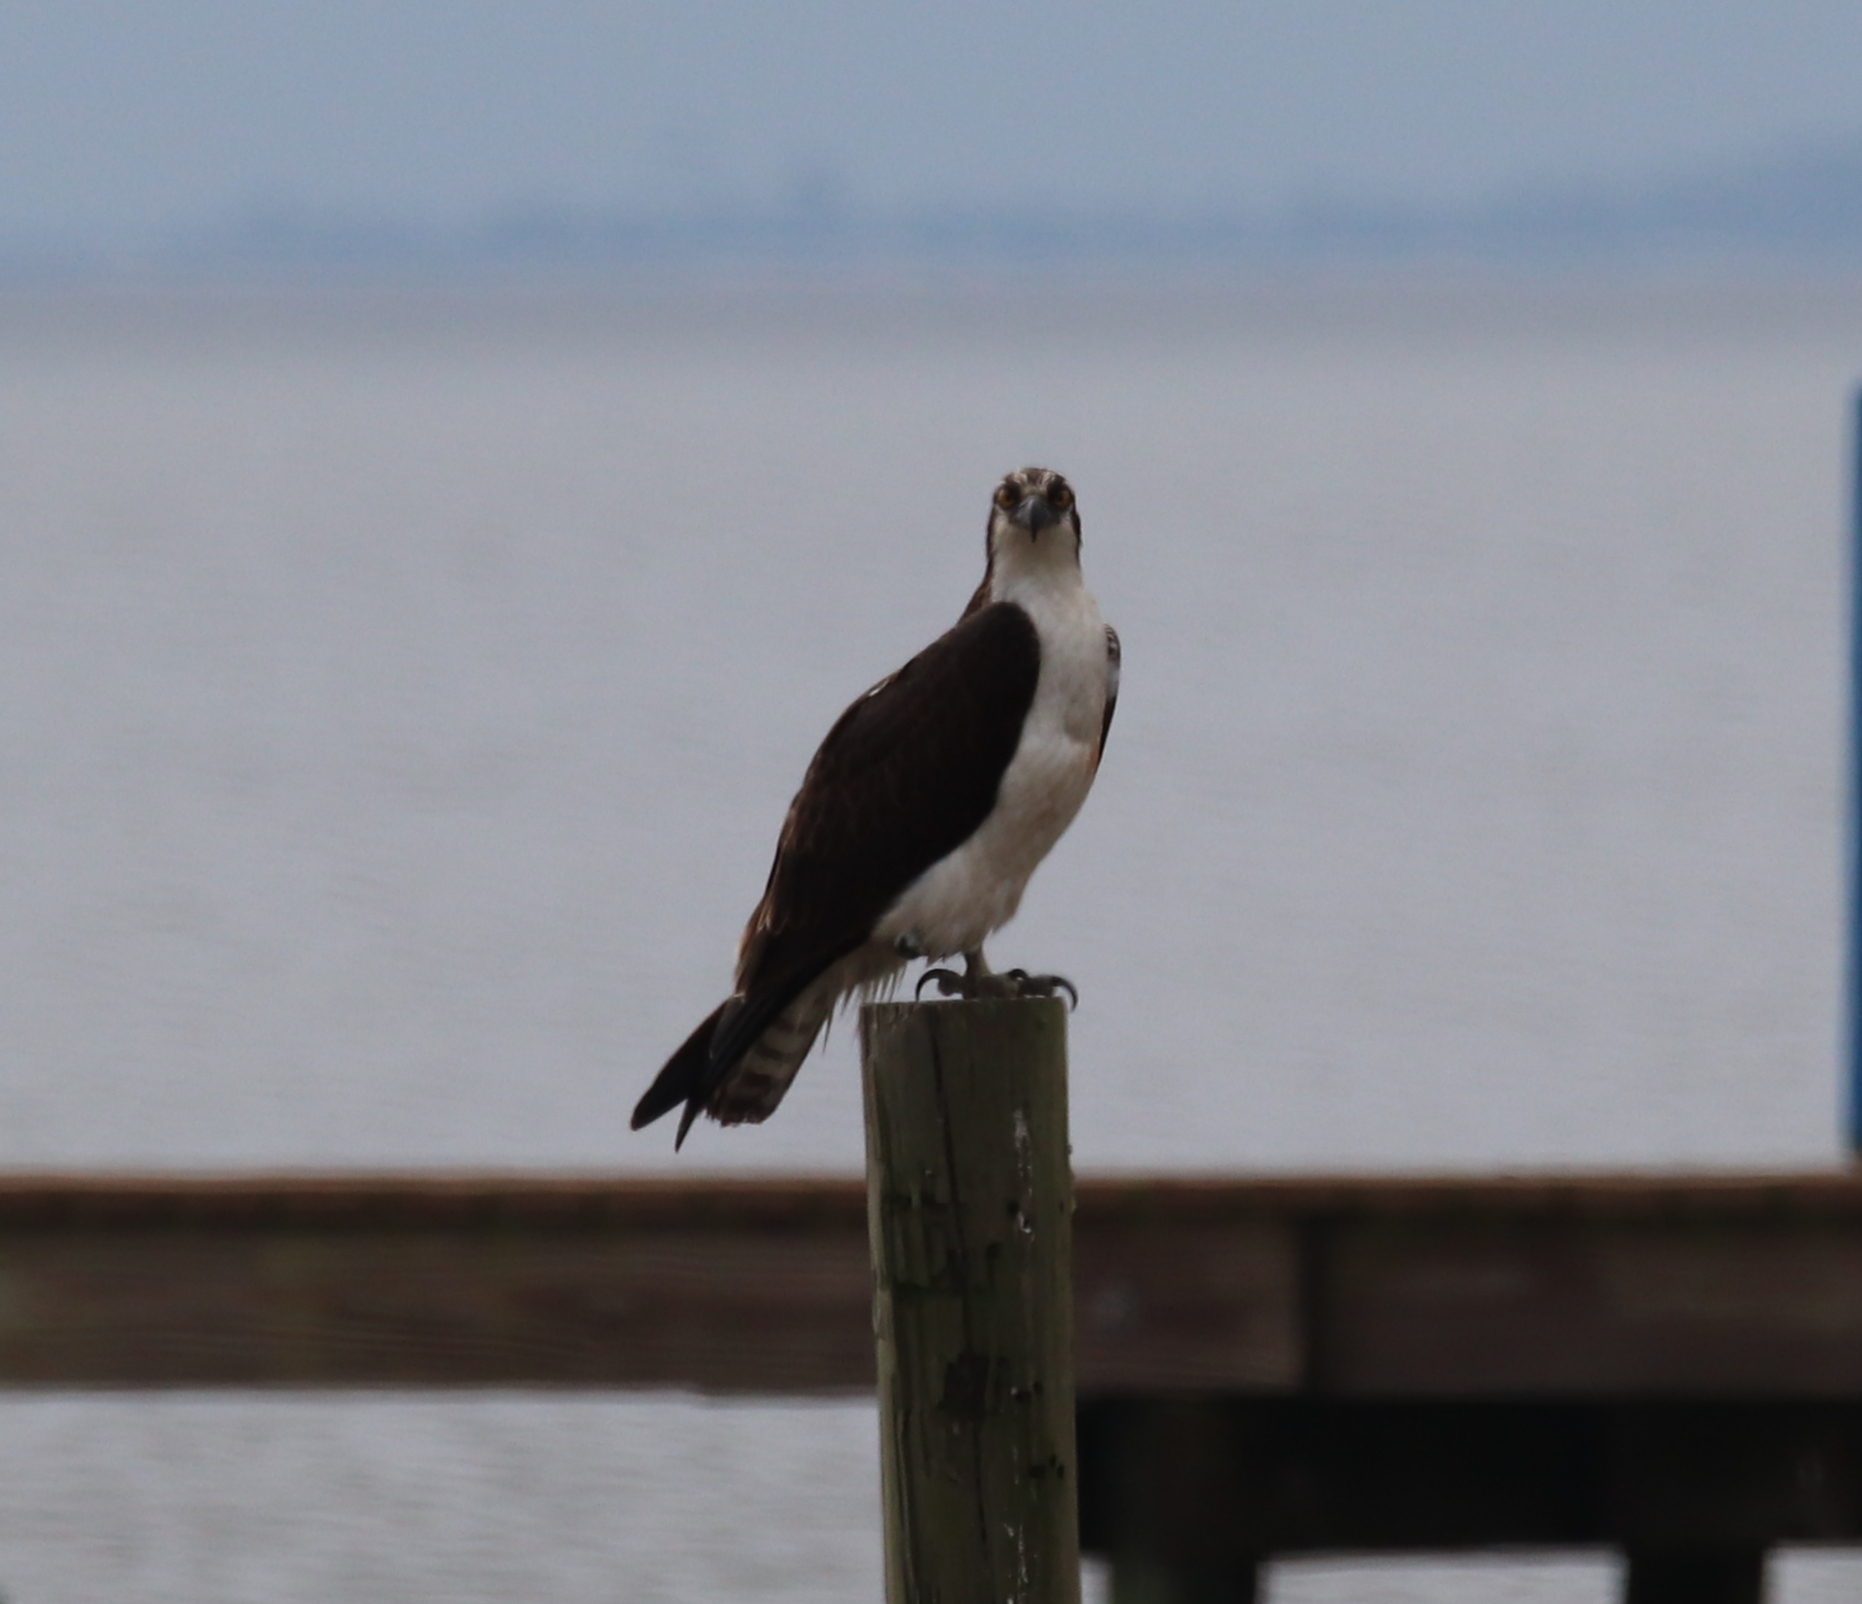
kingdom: Animalia
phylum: Chordata
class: Aves
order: Accipitriformes
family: Pandionidae
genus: Pandion
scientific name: Pandion haliaetus
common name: Osprey
